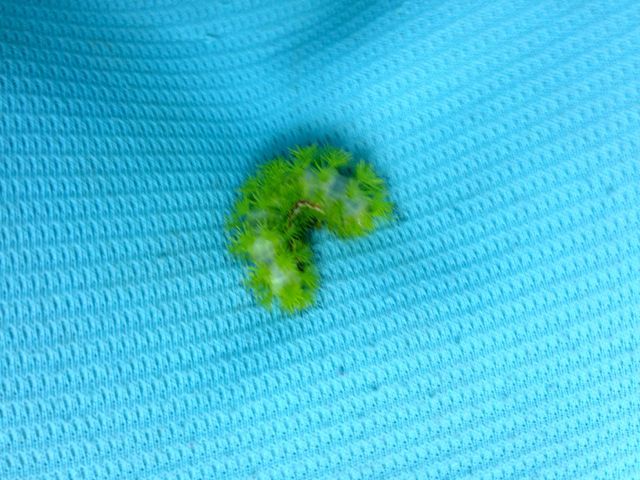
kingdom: Animalia
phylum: Arthropoda
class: Insecta
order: Lepidoptera
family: Saturniidae
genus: Automeris
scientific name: Automeris io
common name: Io moth
